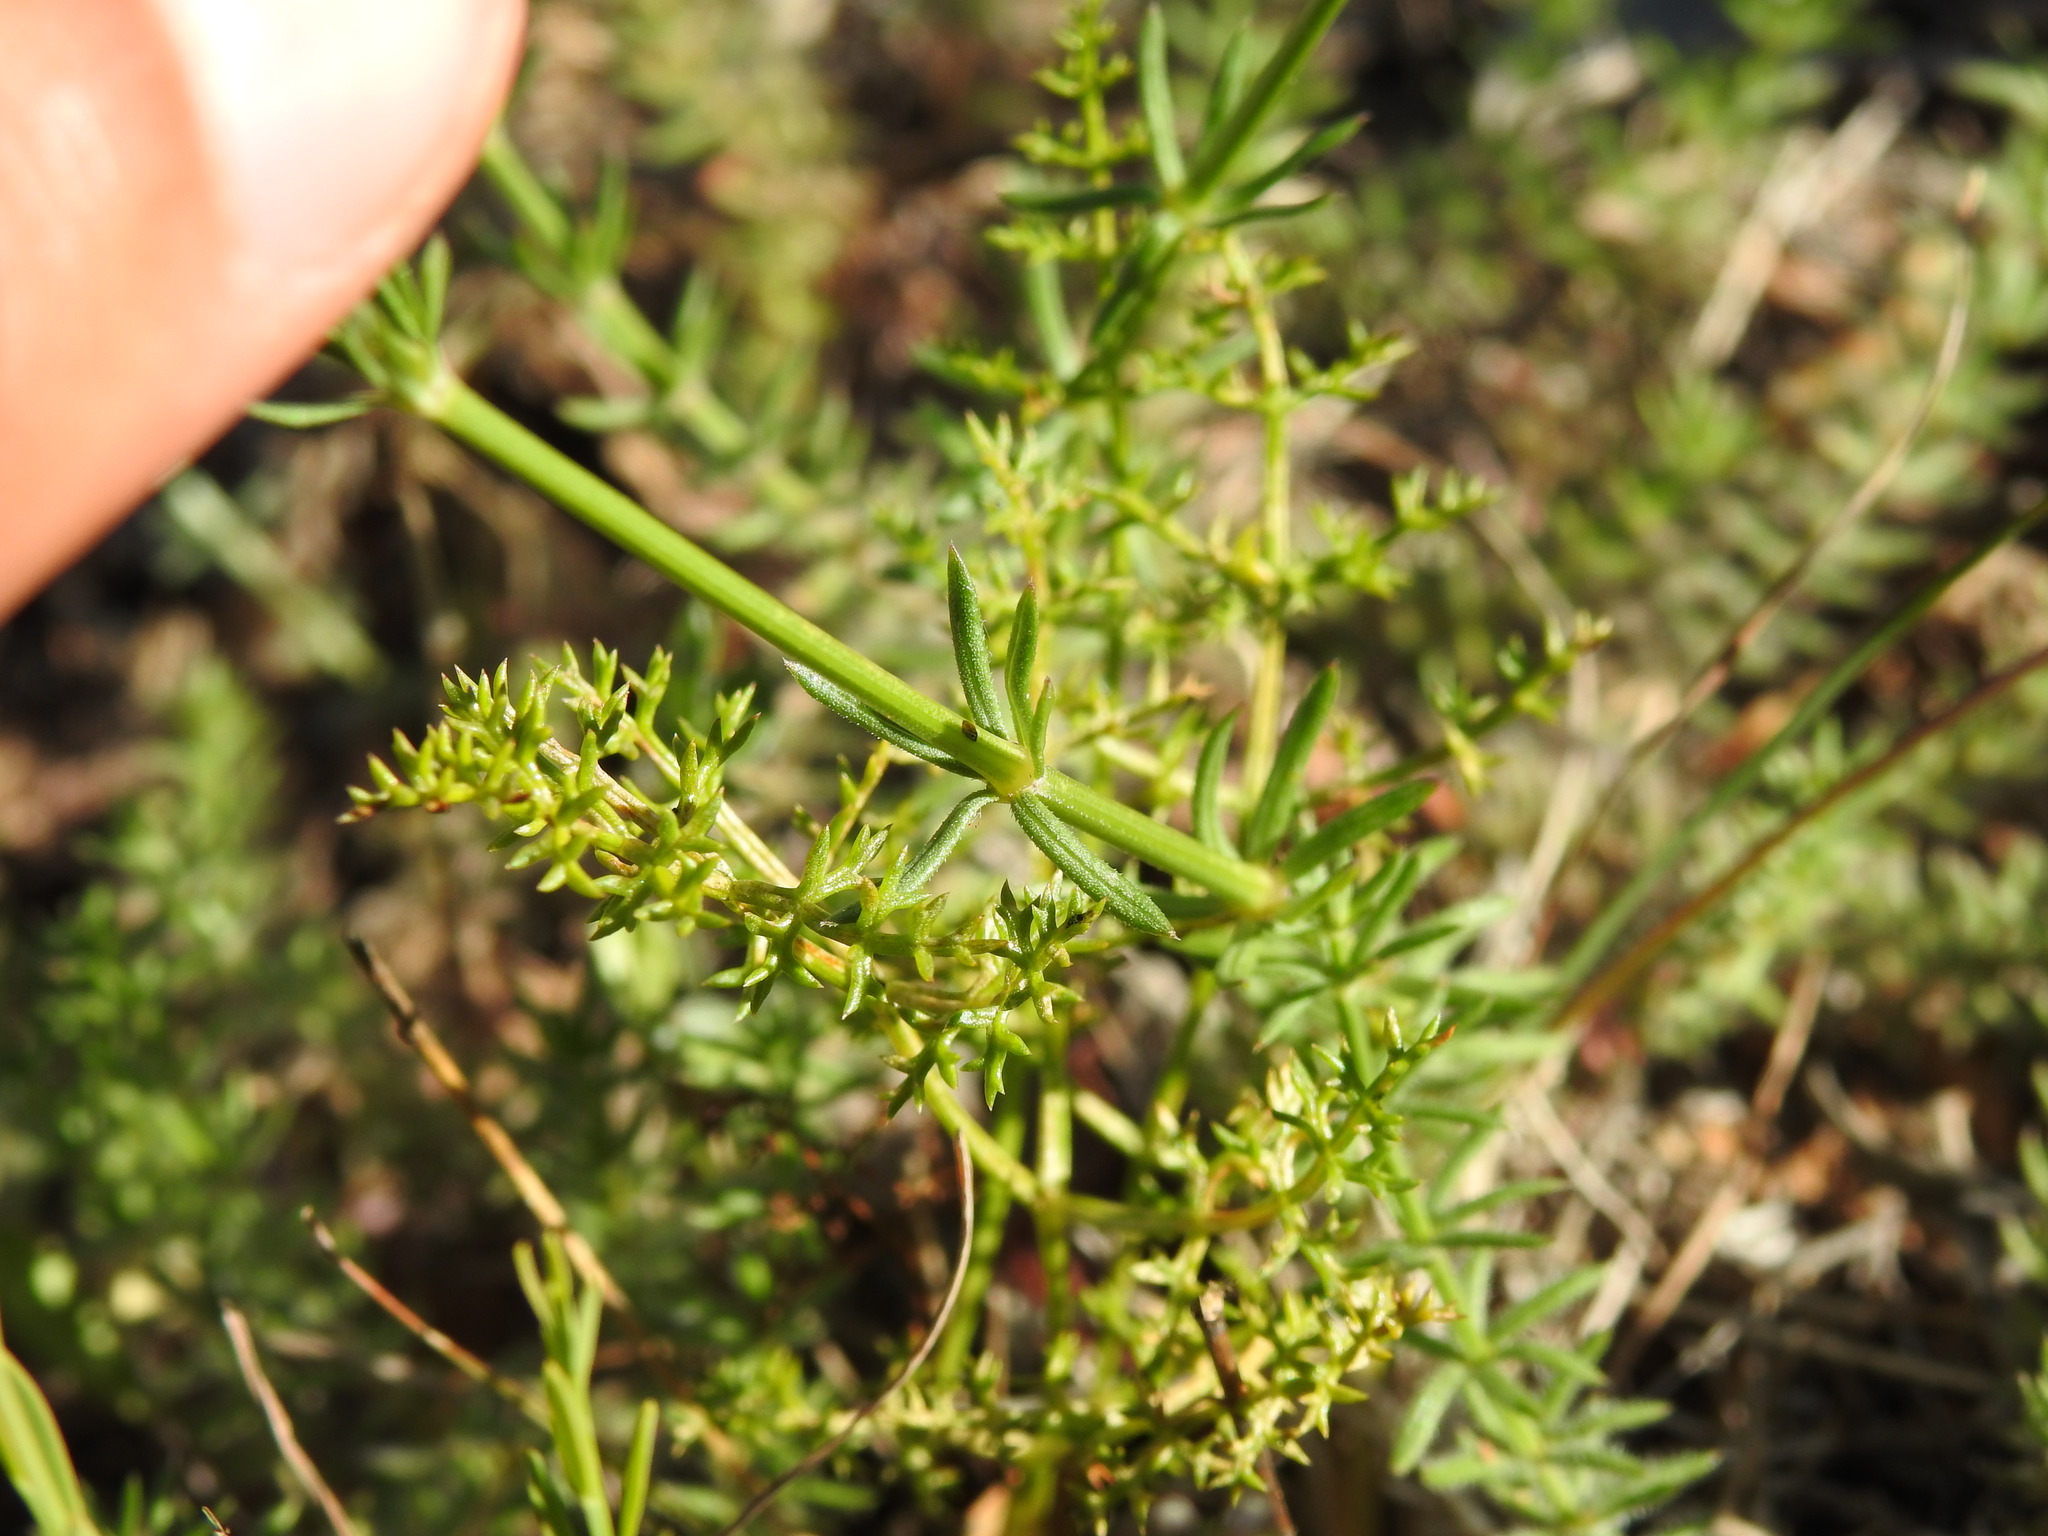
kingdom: Plantae
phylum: Tracheophyta
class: Magnoliopsida
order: Gentianales
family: Rubiaceae
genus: Hexaphylla
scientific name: Hexaphylla hirsuta
